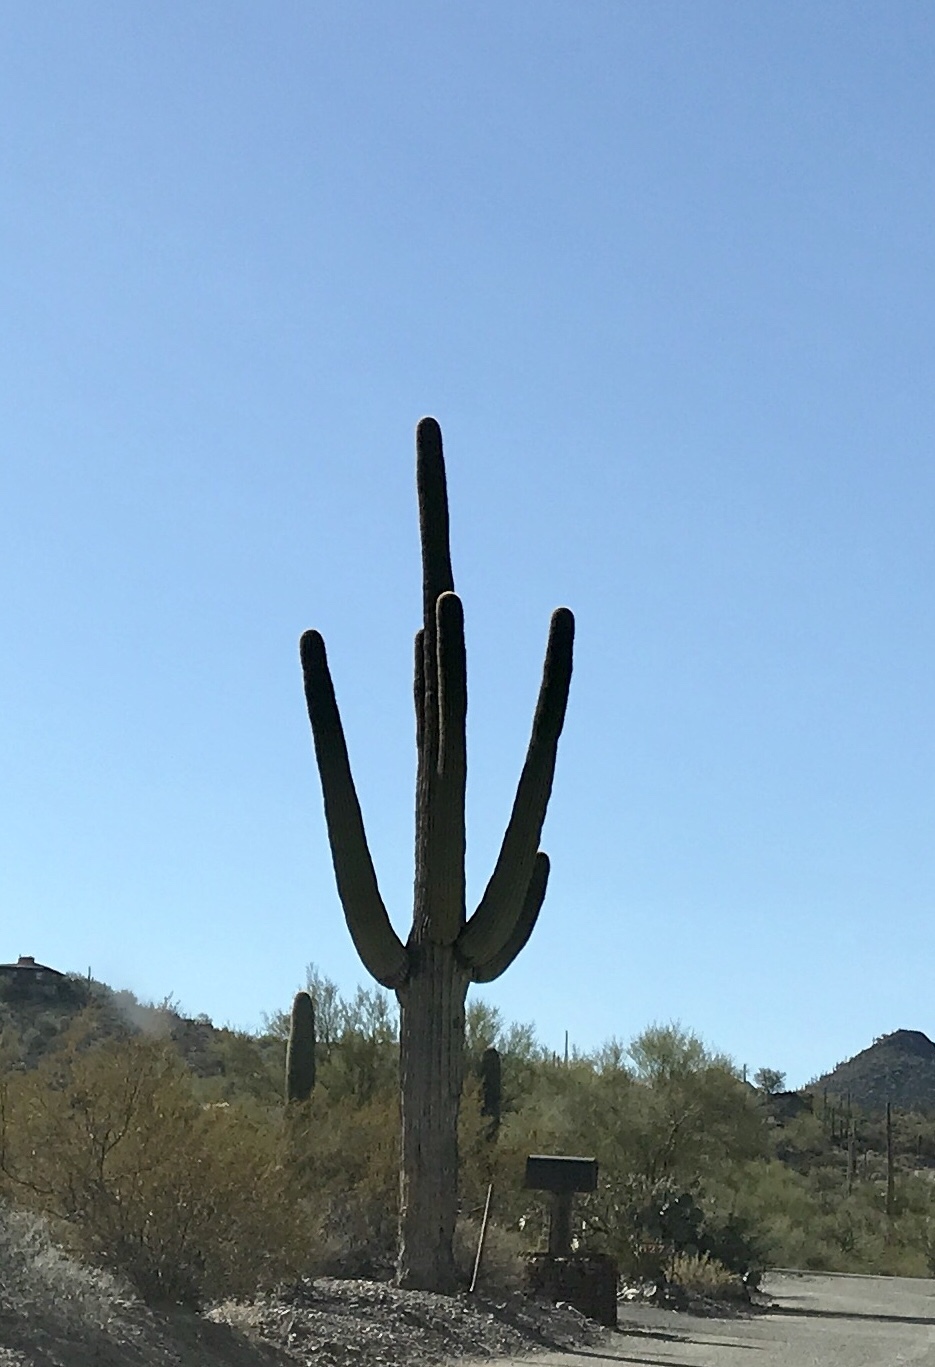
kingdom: Plantae
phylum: Tracheophyta
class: Magnoliopsida
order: Caryophyllales
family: Cactaceae
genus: Carnegiea
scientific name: Carnegiea gigantea
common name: Saguaro
